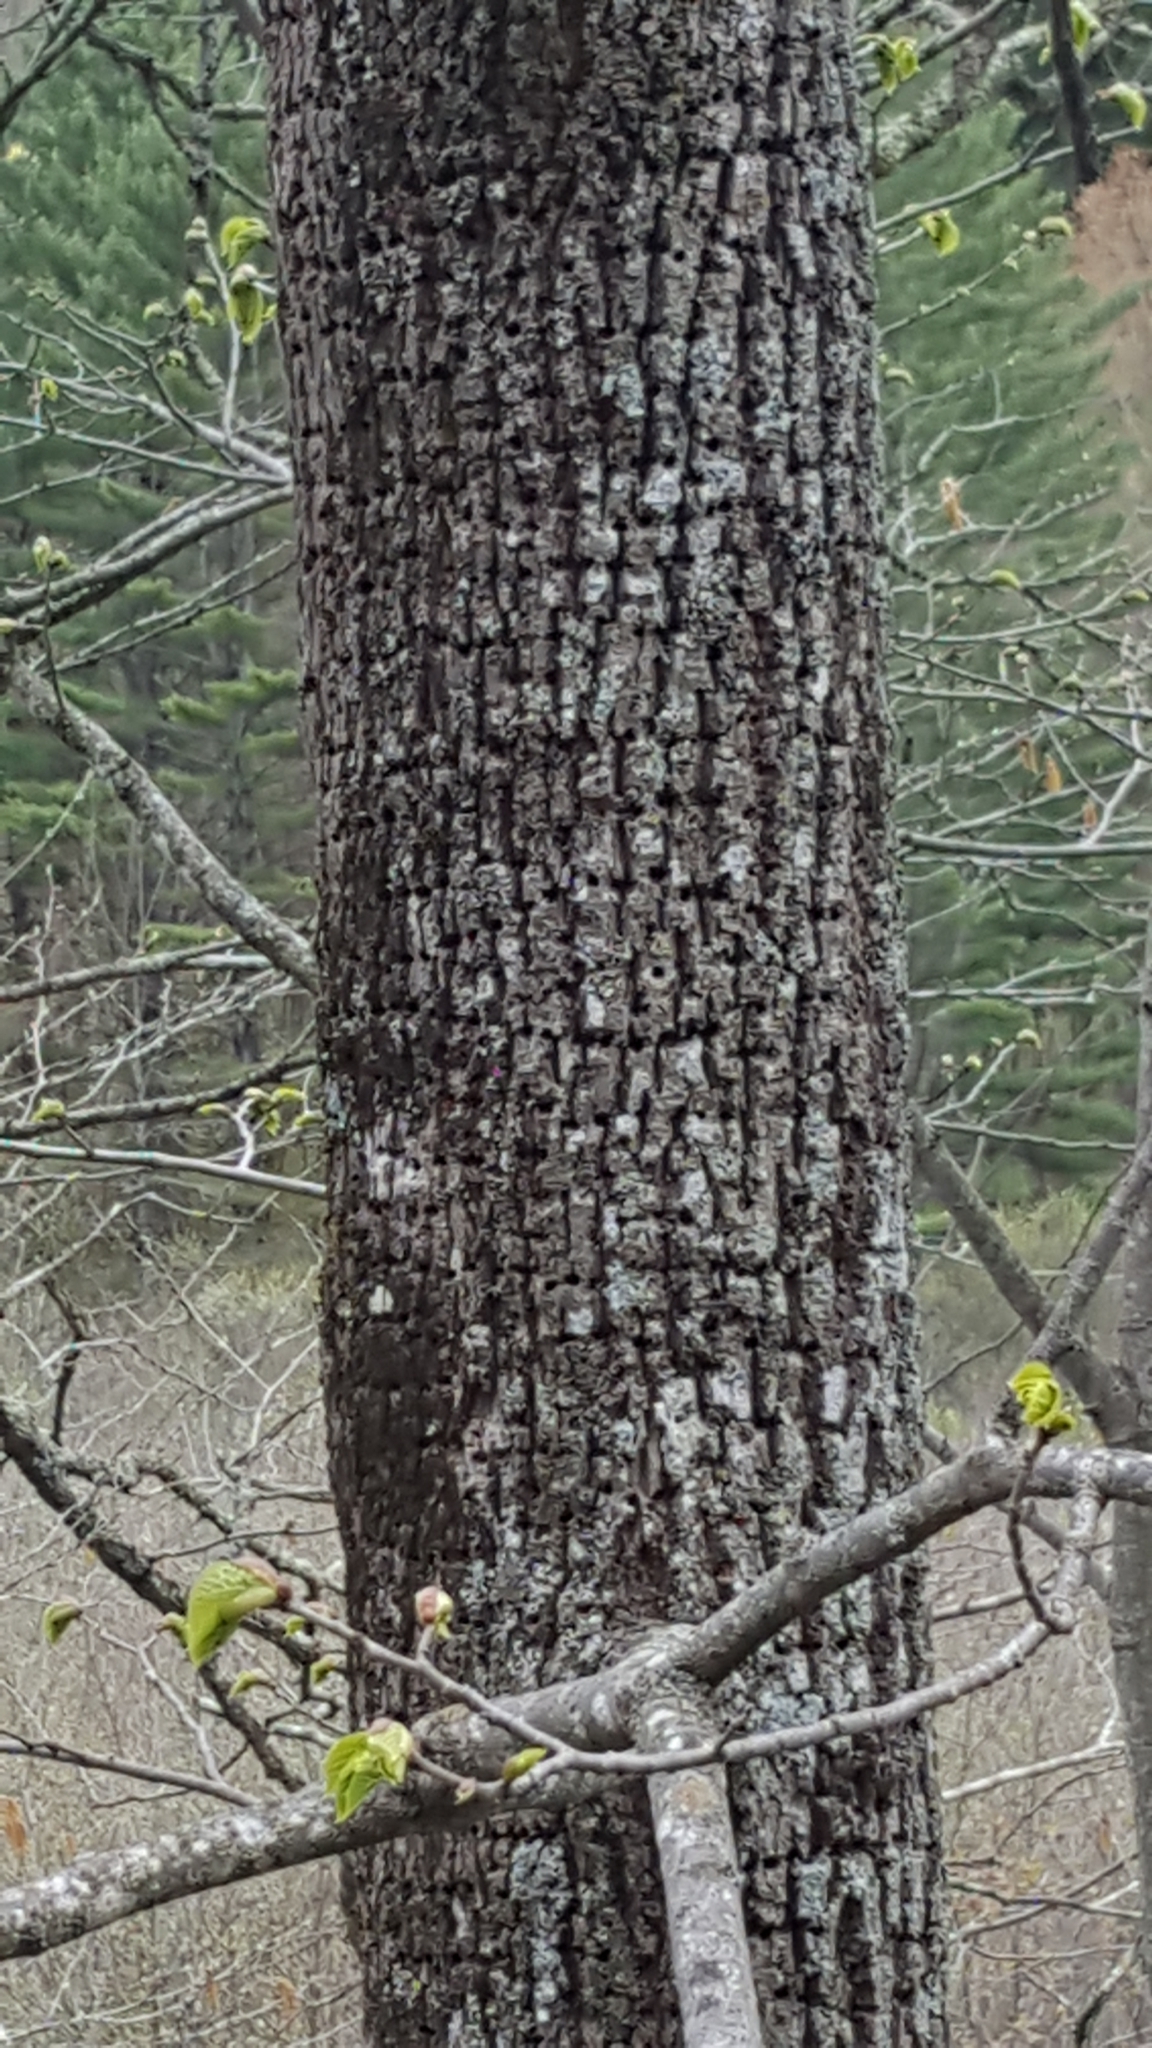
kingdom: Animalia
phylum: Chordata
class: Aves
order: Piciformes
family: Picidae
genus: Sphyrapicus
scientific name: Sphyrapicus varius
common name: Yellow-bellied sapsucker
